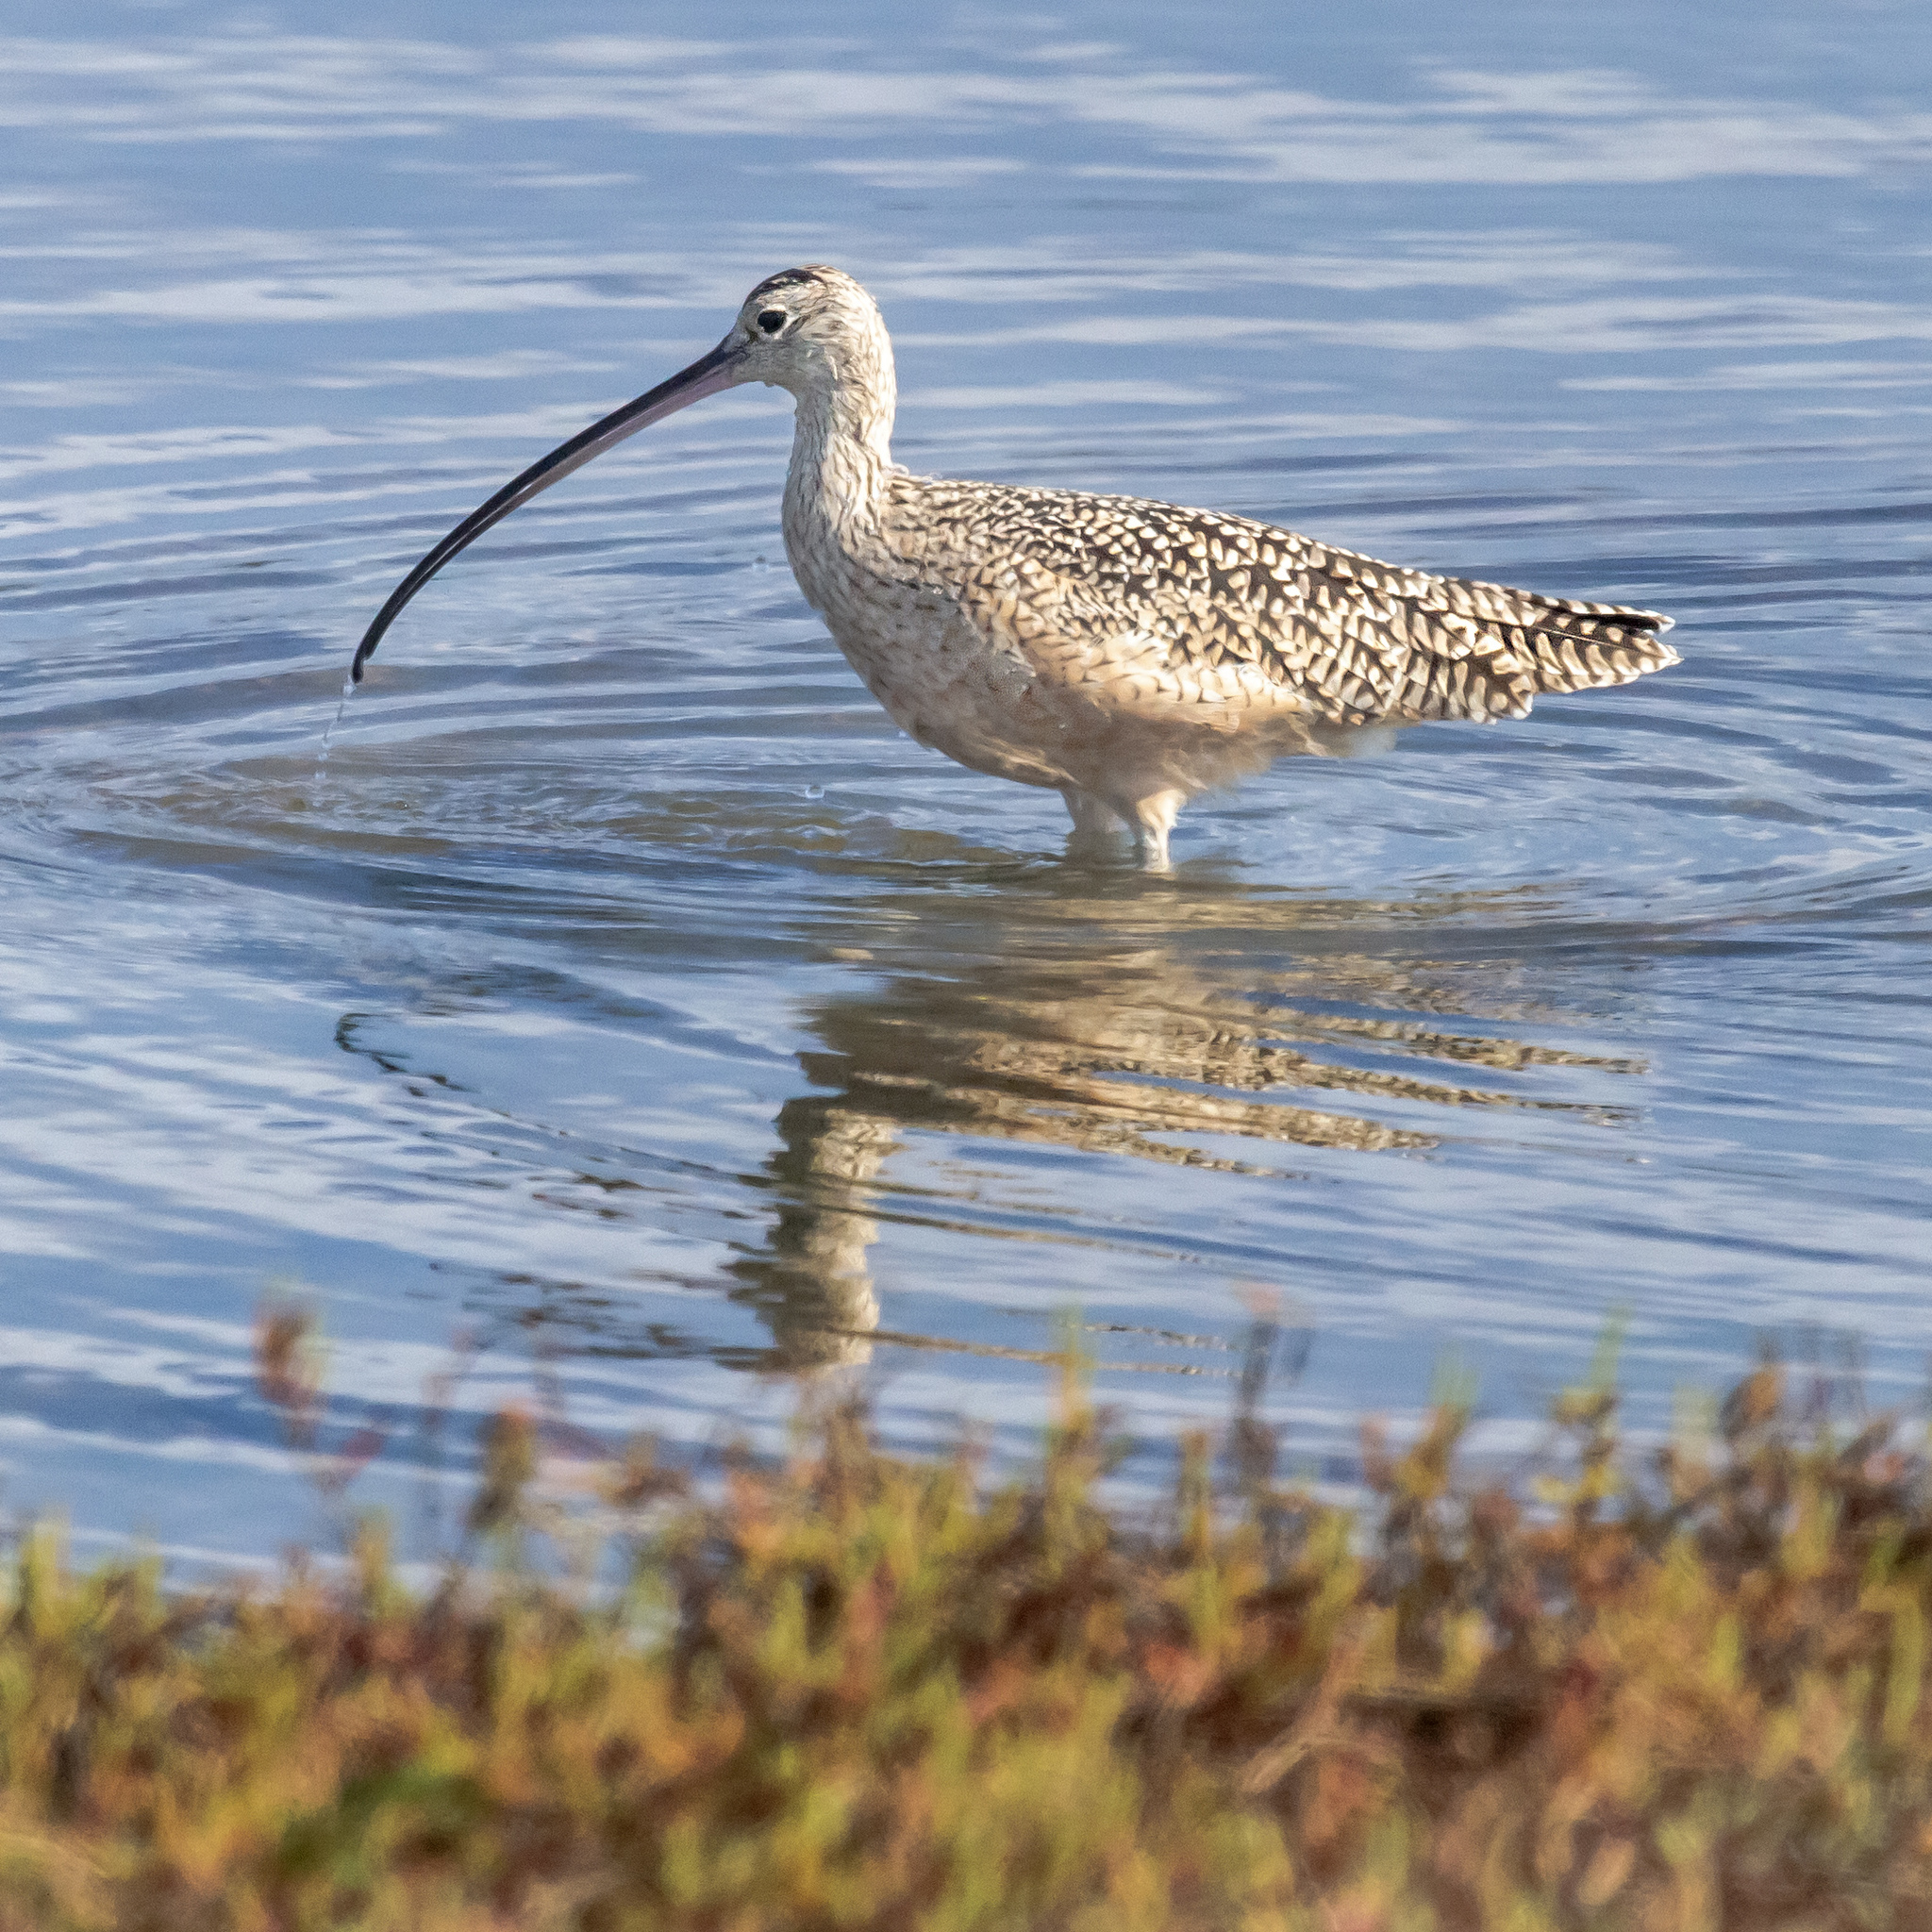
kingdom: Animalia
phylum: Chordata
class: Aves
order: Charadriiformes
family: Scolopacidae
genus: Numenius
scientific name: Numenius americanus
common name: Long-billed curlew
